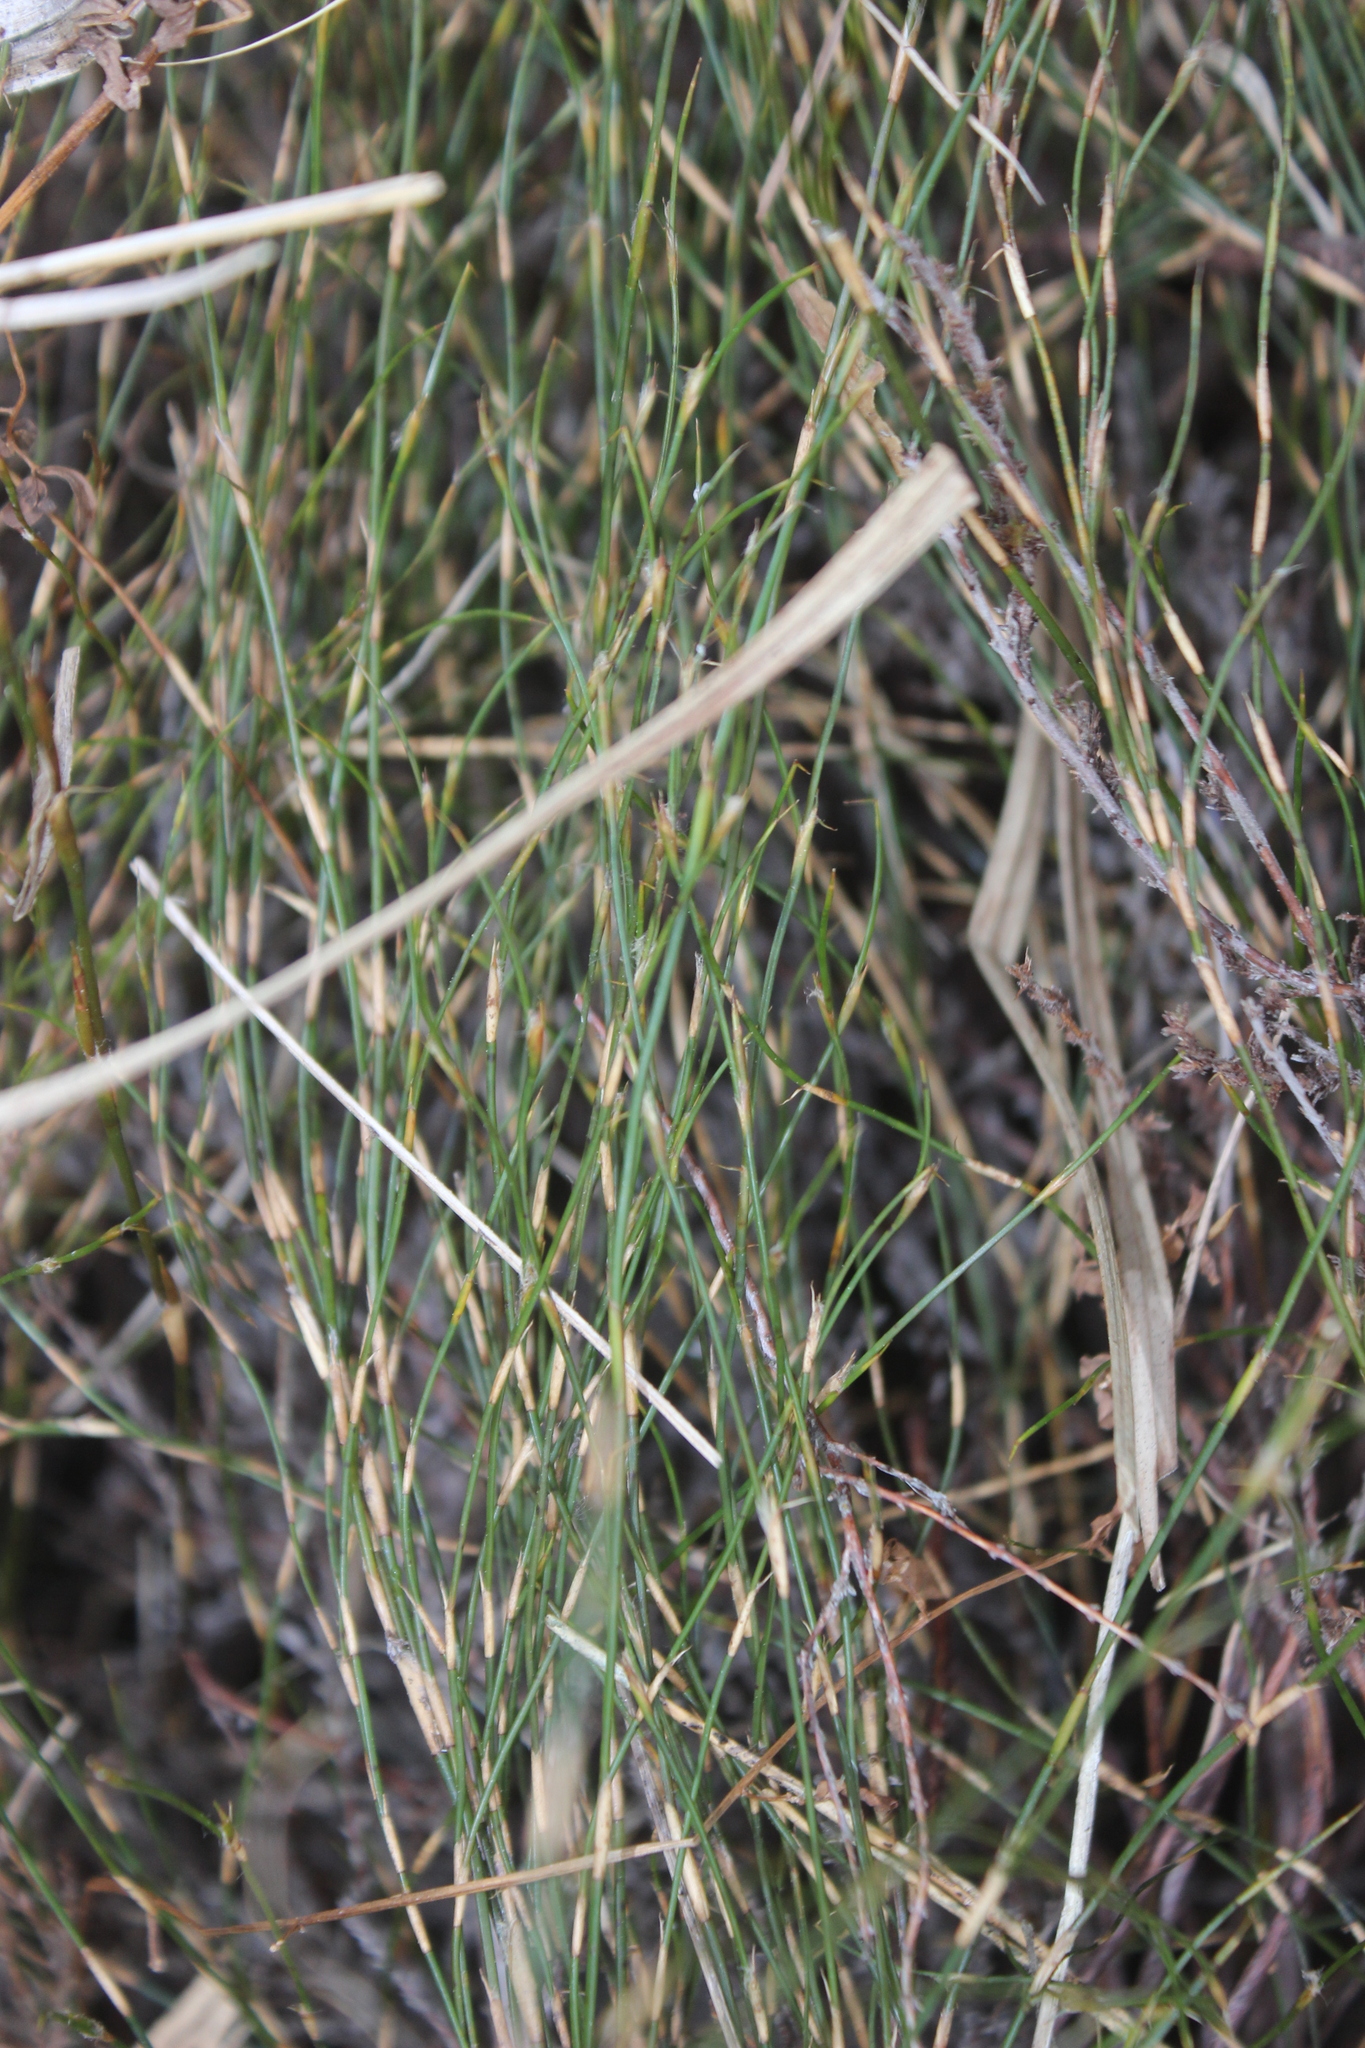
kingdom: Plantae
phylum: Tracheophyta
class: Liliopsida
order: Poales
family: Restionaceae
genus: Empodisma
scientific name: Empodisma minus
